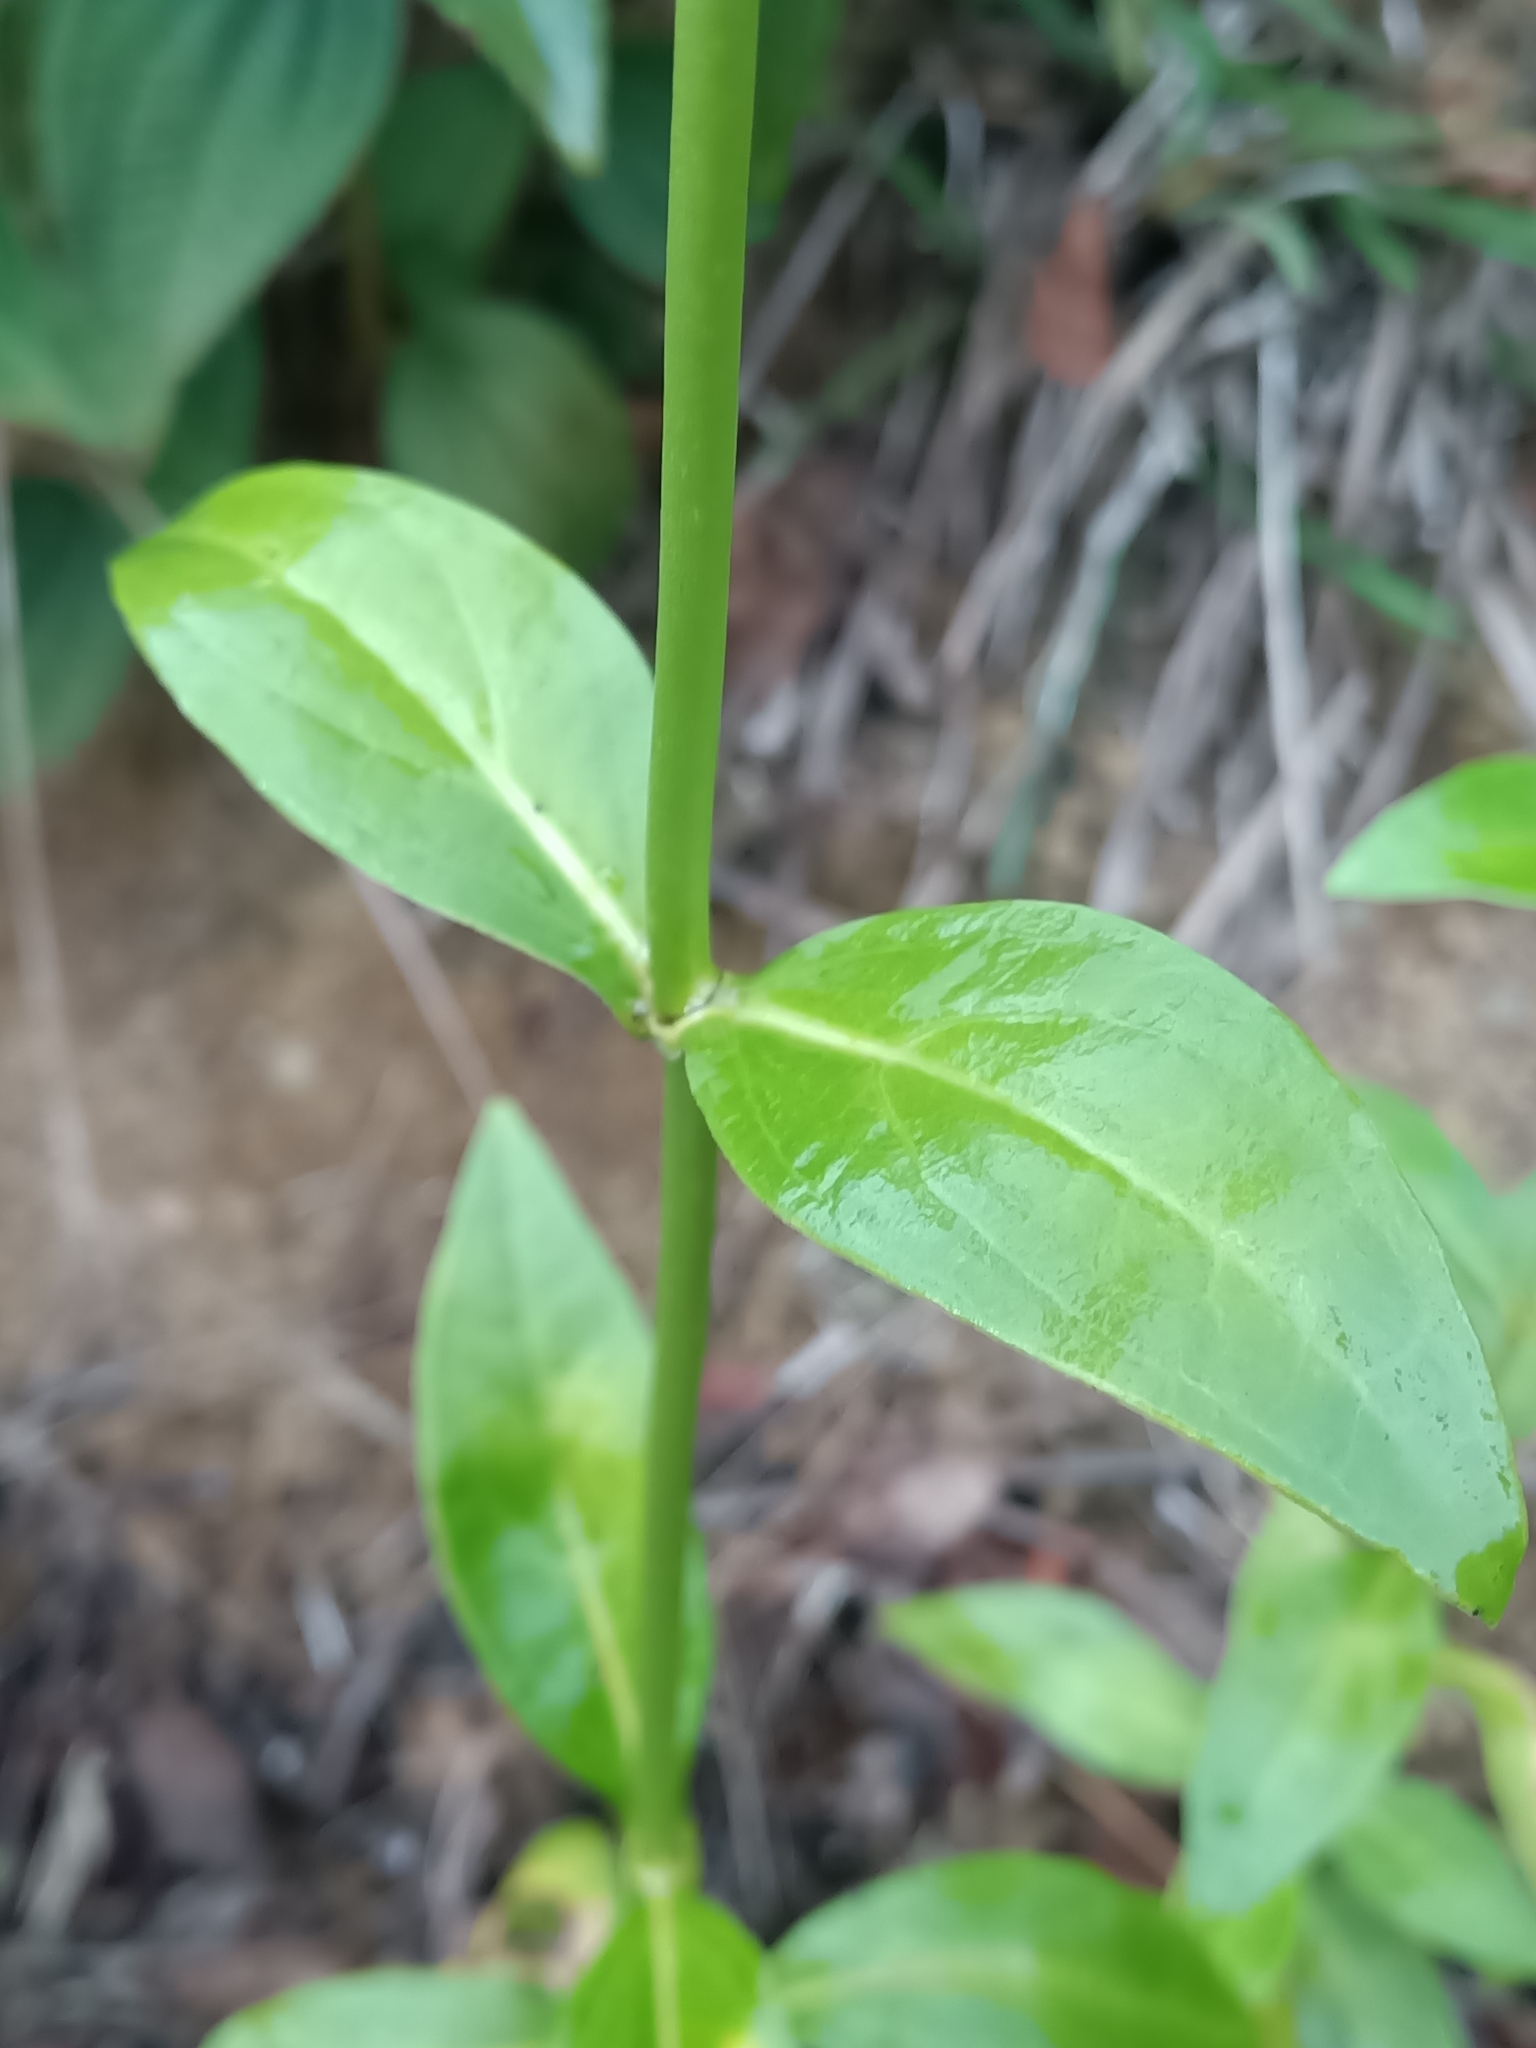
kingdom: Plantae
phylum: Tracheophyta
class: Magnoliopsida
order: Gentianales
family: Gentianaceae
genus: Chelonanthus
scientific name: Chelonanthus grandiflorus
